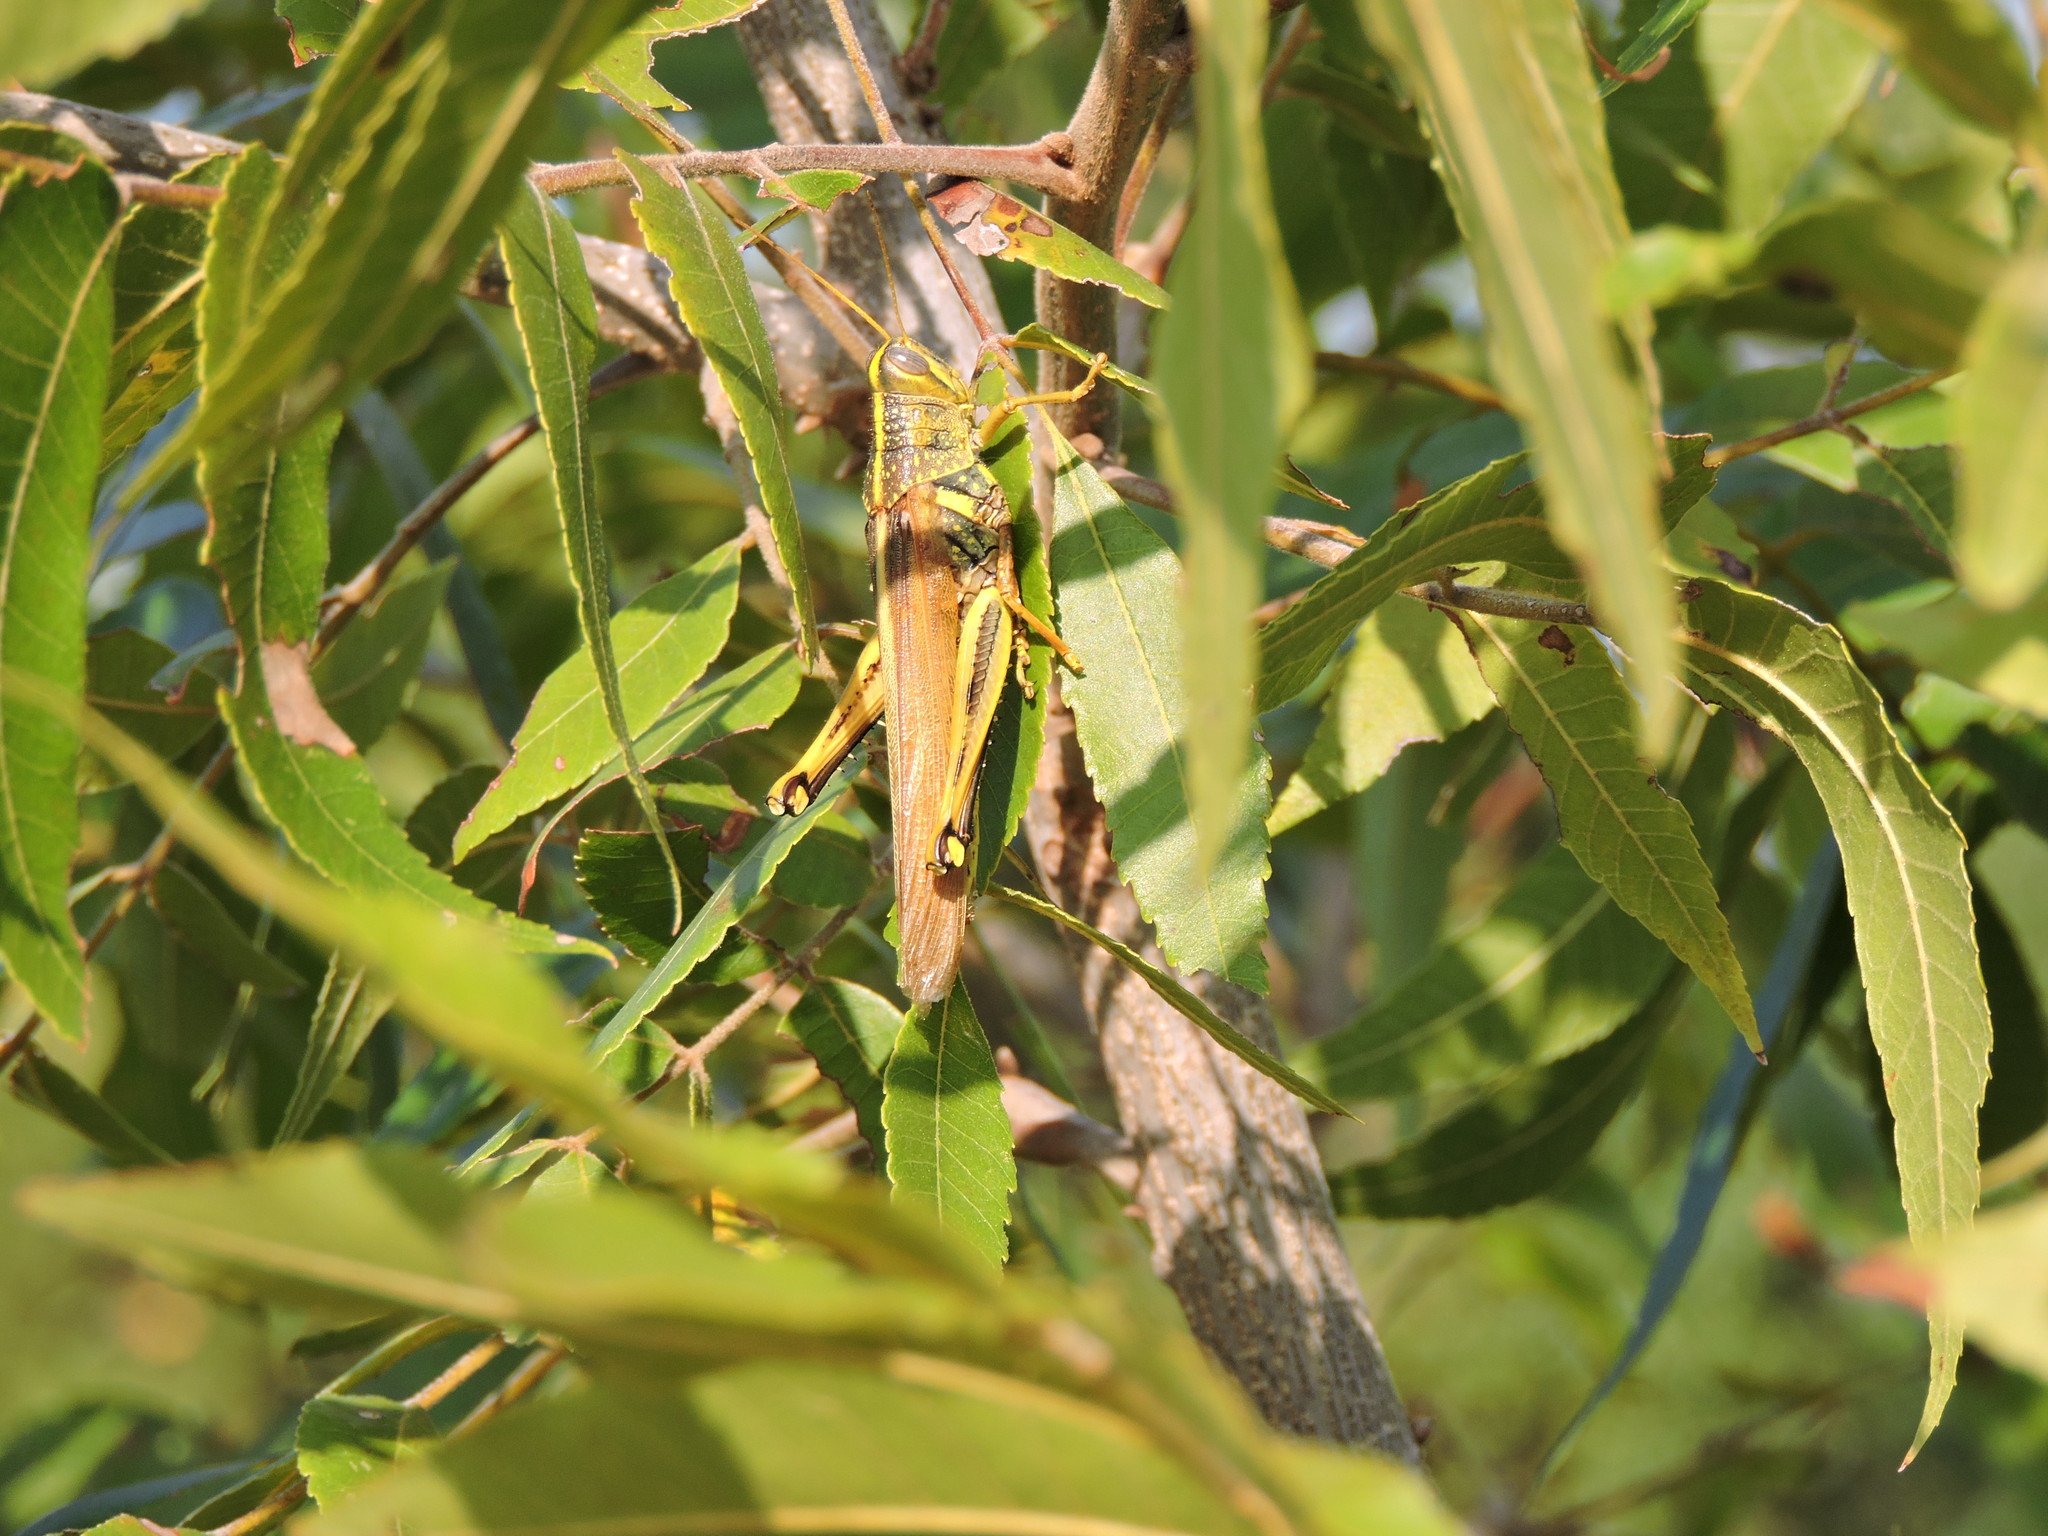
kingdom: Animalia
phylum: Arthropoda
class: Insecta
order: Orthoptera
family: Acrididae
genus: Schistocerca
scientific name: Schistocerca lineata
